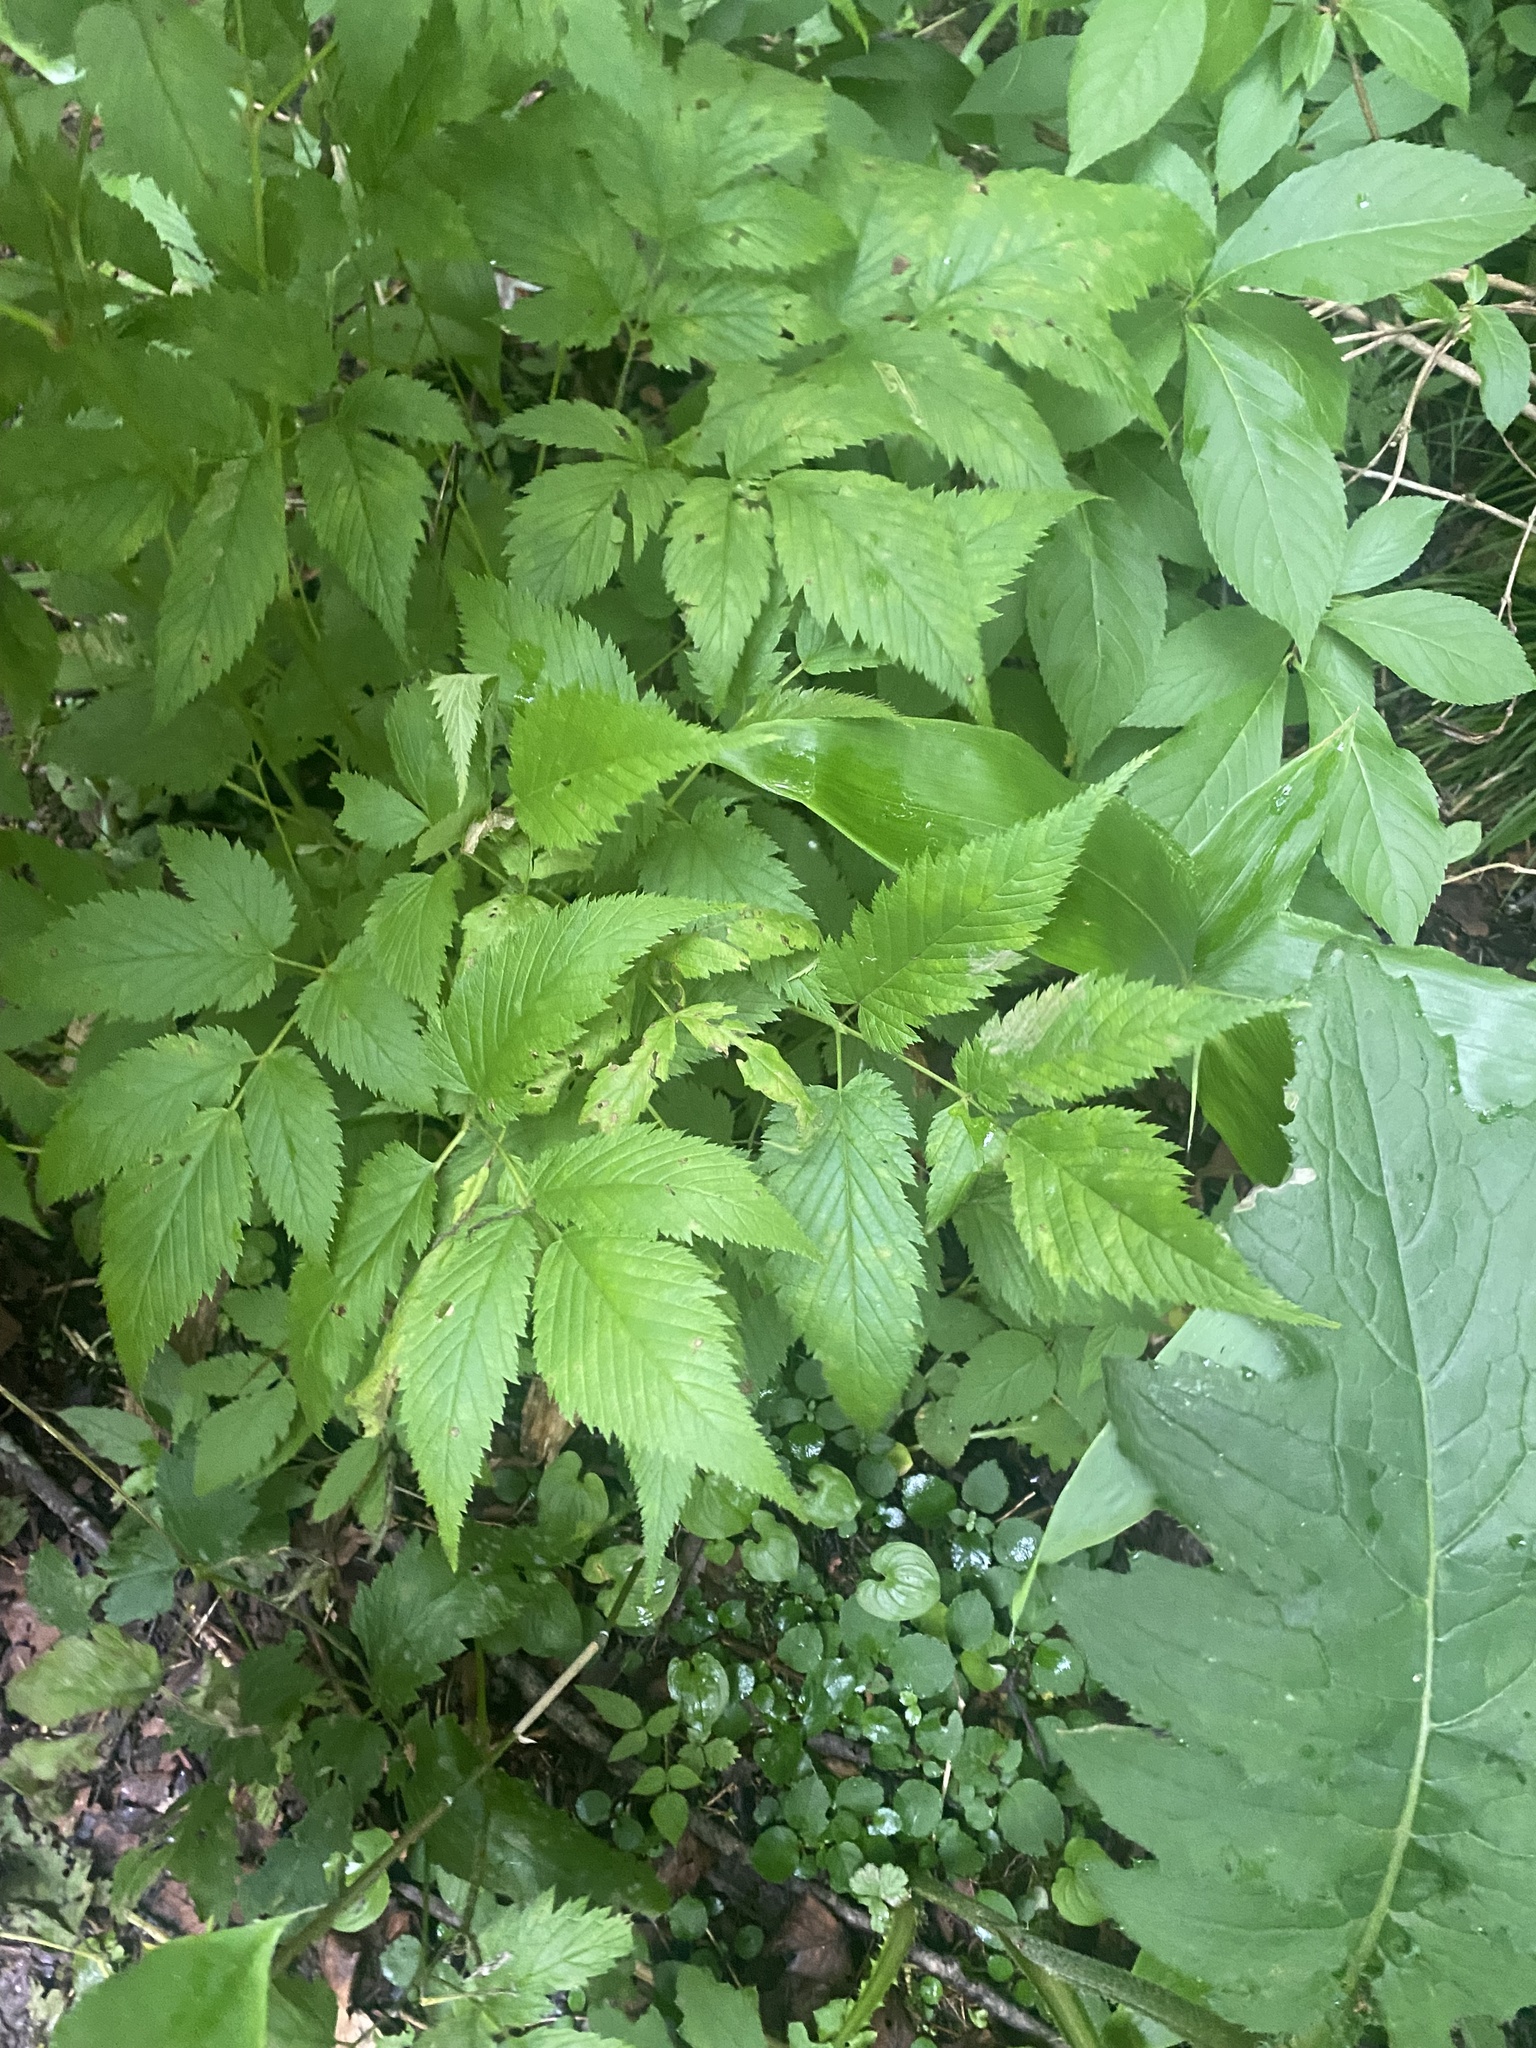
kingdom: Plantae
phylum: Tracheophyta
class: Magnoliopsida
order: Rosales
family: Rosaceae
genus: Aruncus
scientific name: Aruncus dioicus
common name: Buck's-beard
